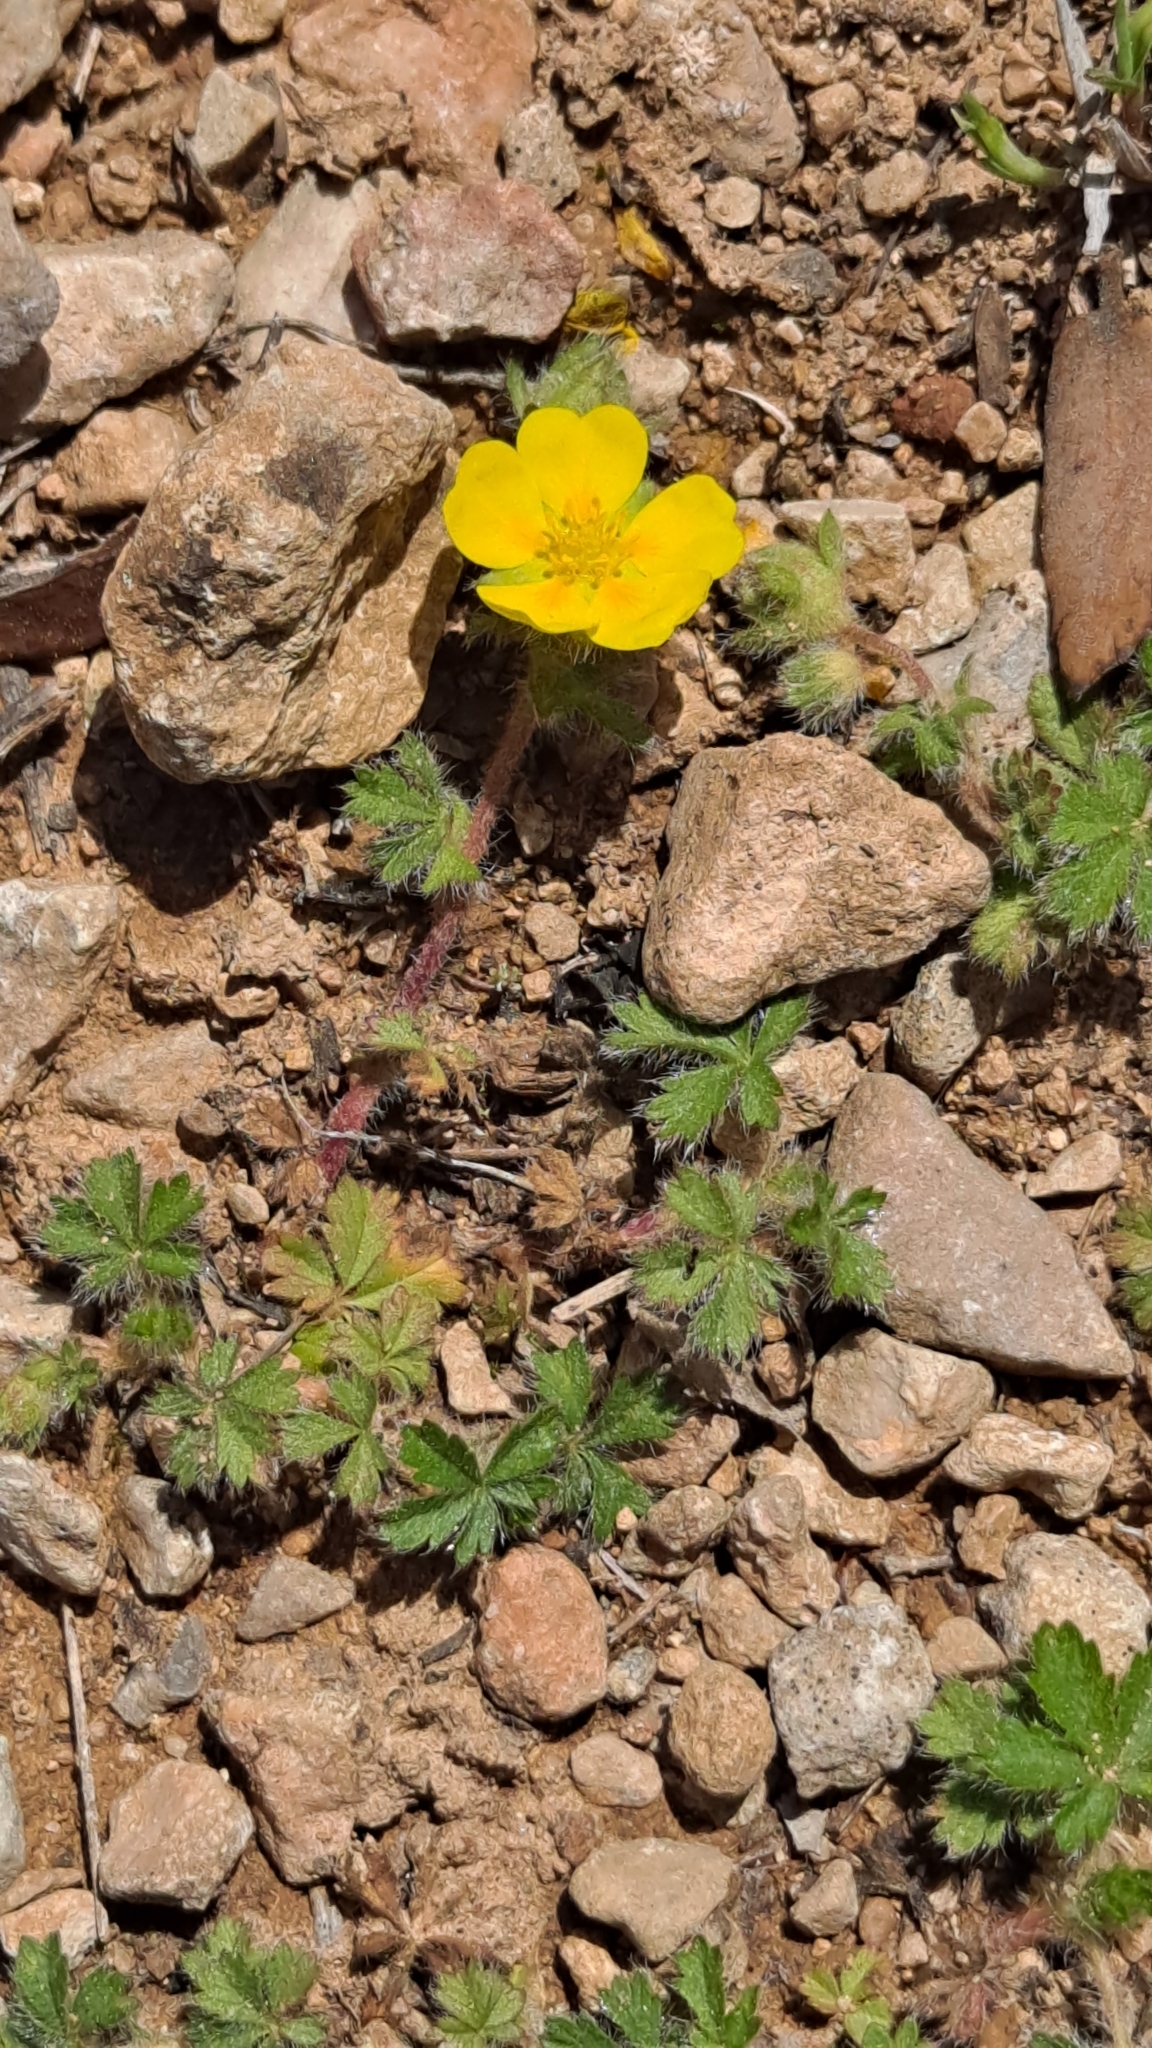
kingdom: Plantae
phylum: Tracheophyta
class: Magnoliopsida
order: Rosales
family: Rosaceae
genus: Potentilla
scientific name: Potentilla verna
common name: Spring cinquefoil
